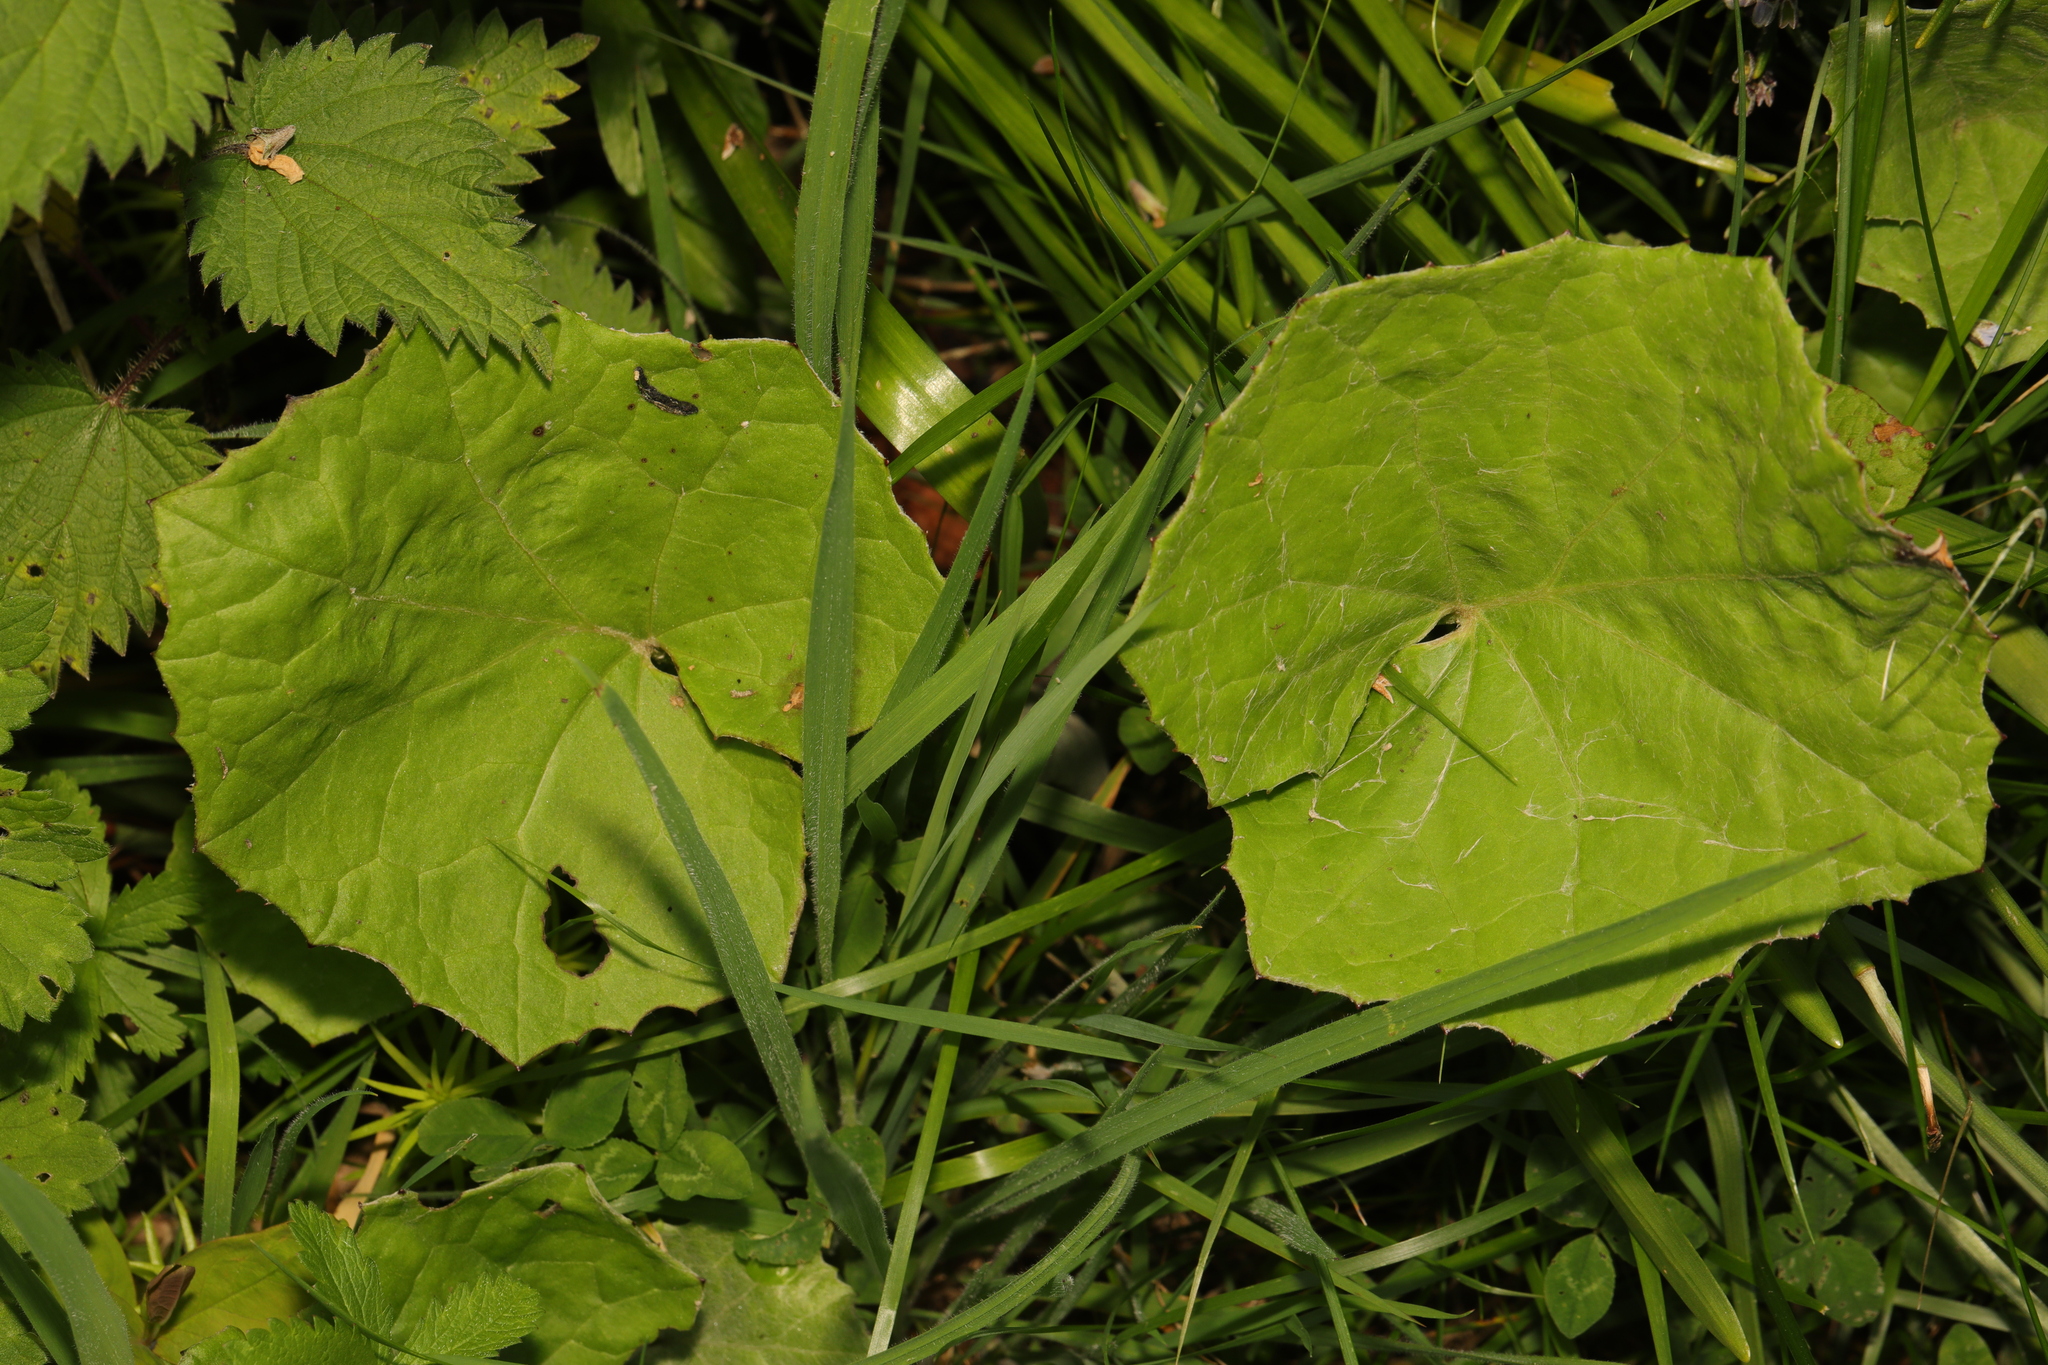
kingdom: Plantae
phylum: Tracheophyta
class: Magnoliopsida
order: Asterales
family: Asteraceae
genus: Tussilago
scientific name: Tussilago farfara
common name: Coltsfoot
